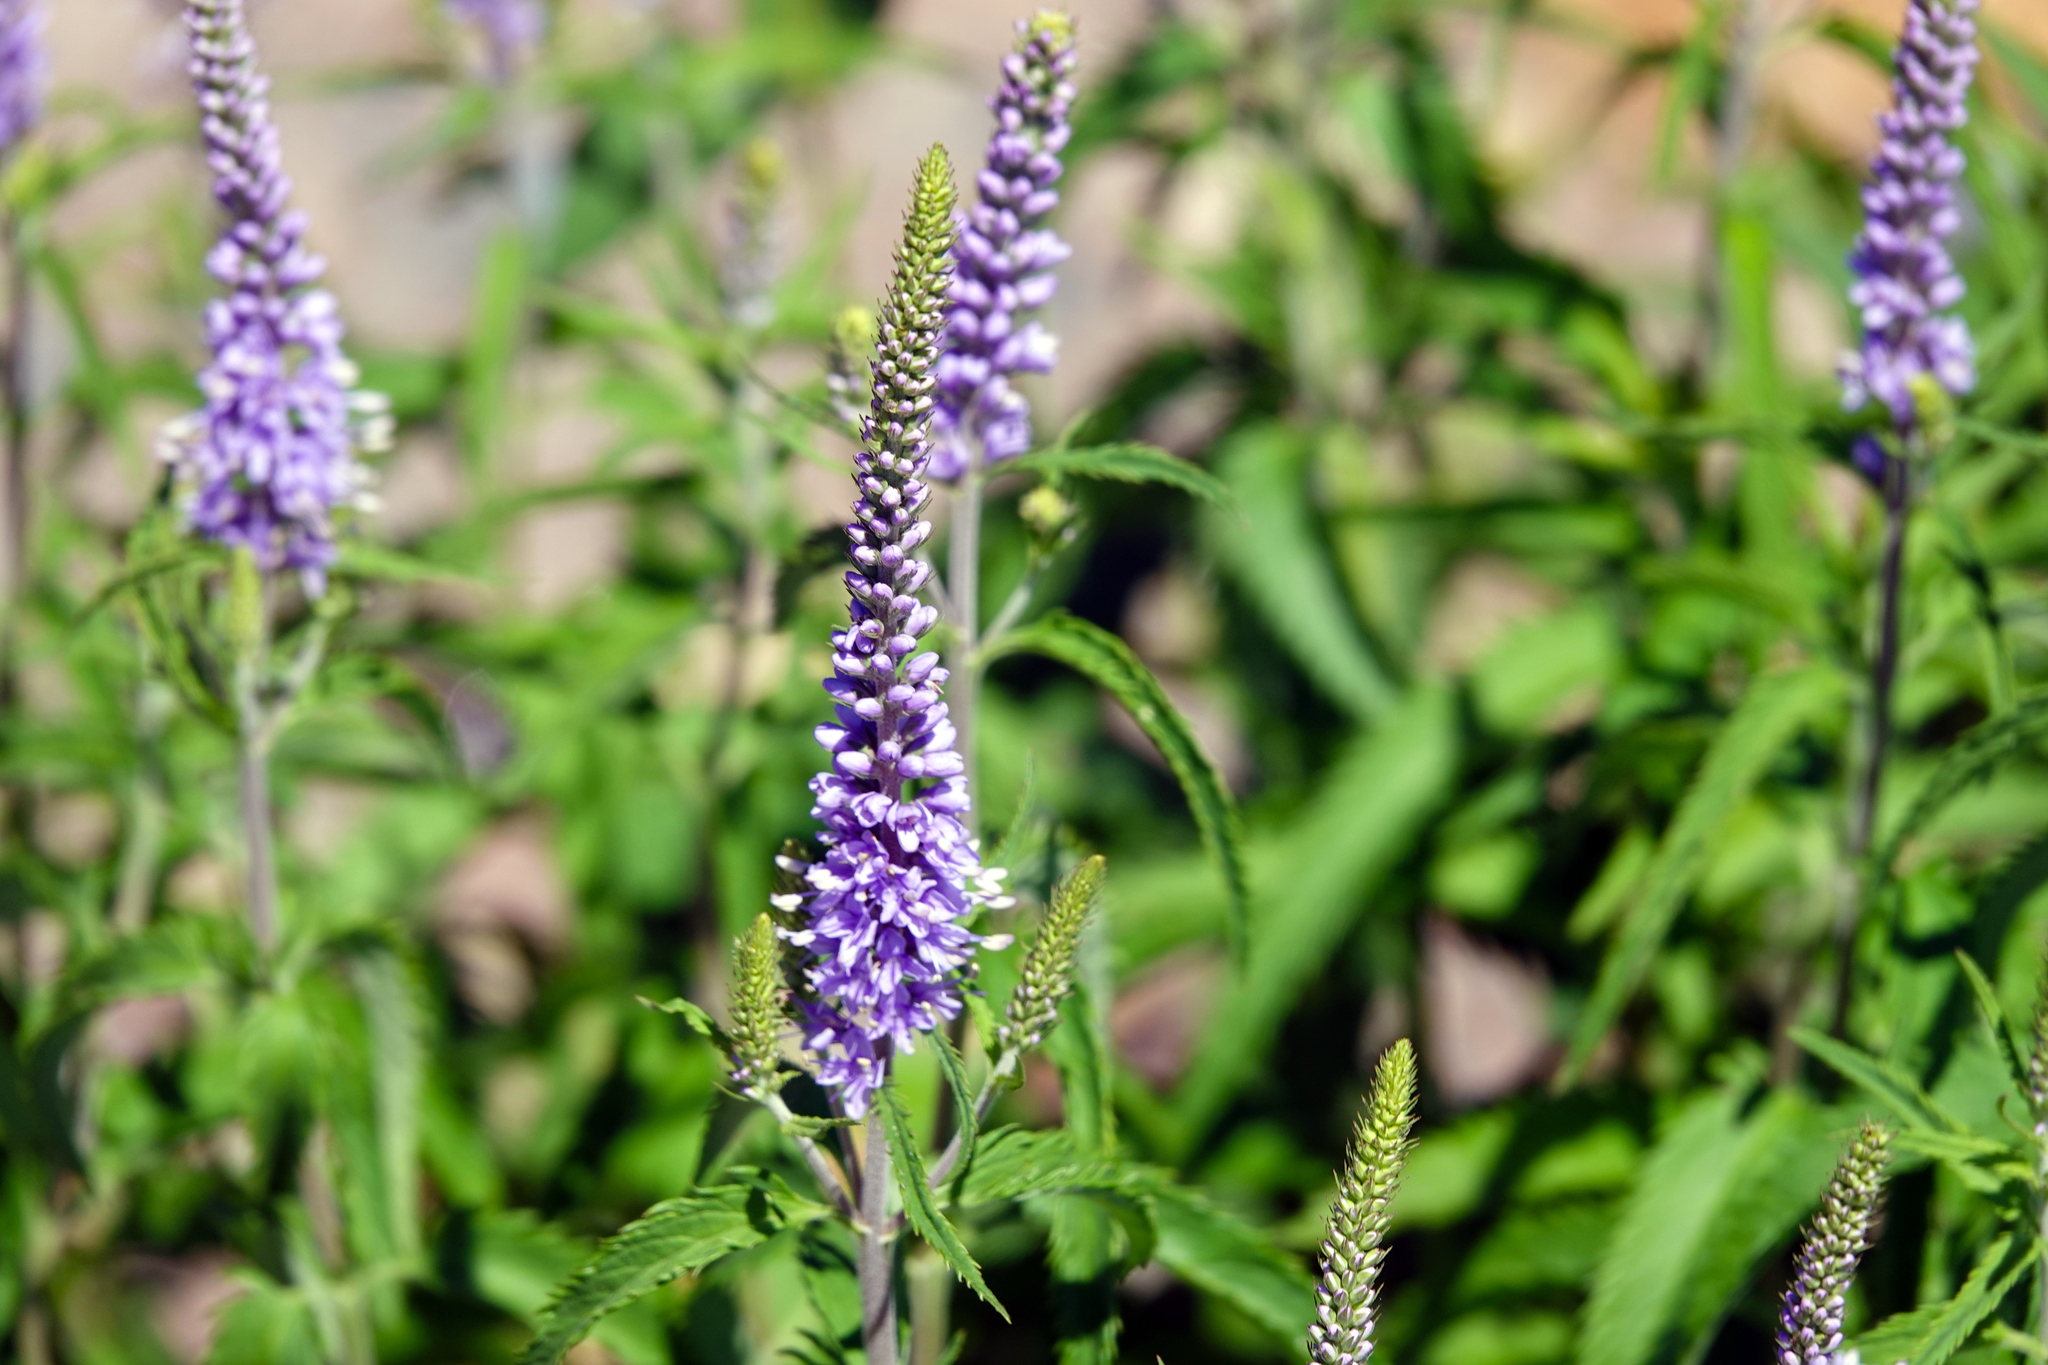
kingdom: Plantae
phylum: Tracheophyta
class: Magnoliopsida
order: Lamiales
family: Plantaginaceae
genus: Veronica
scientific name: Veronica longifolia
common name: Garden speedwell
